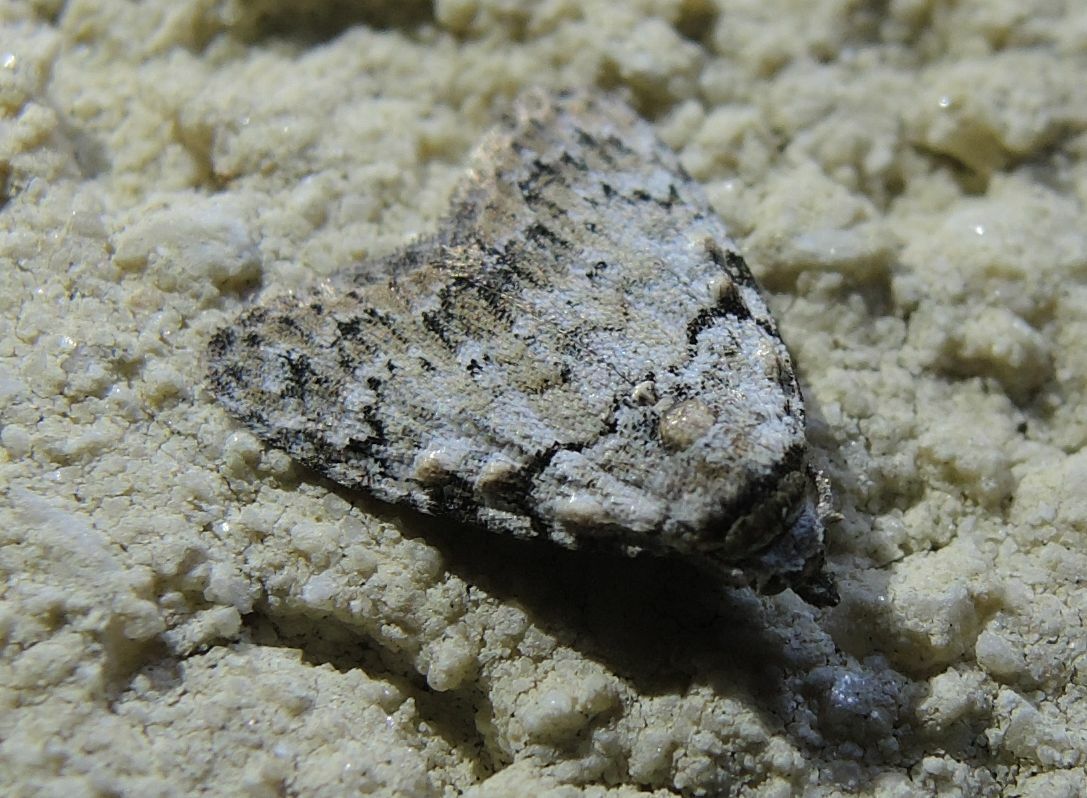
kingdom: Animalia
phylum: Arthropoda
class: Insecta
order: Lepidoptera
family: Nolidae
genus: Nola
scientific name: Nola cicatricalis
